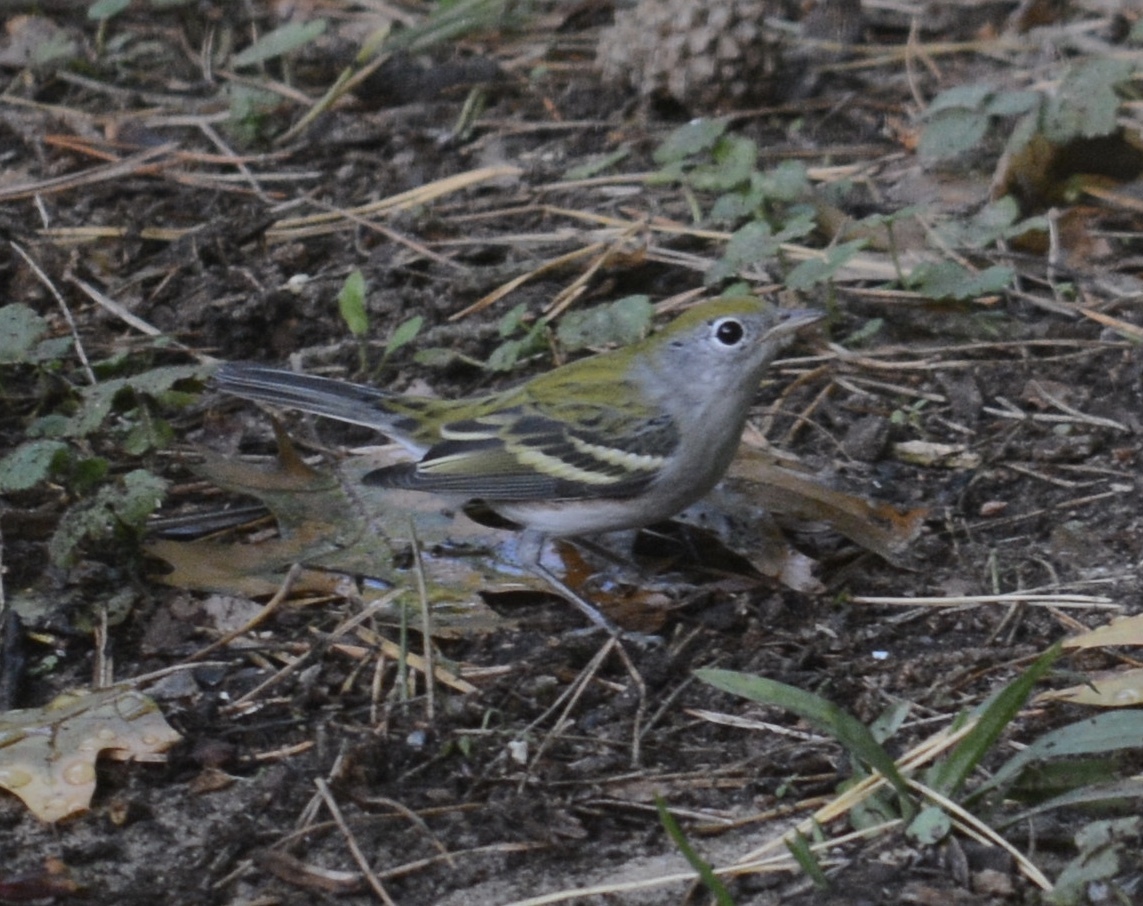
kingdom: Animalia
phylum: Chordata
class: Aves
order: Passeriformes
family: Parulidae
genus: Setophaga
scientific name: Setophaga pensylvanica
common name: Chestnut-sided warbler
